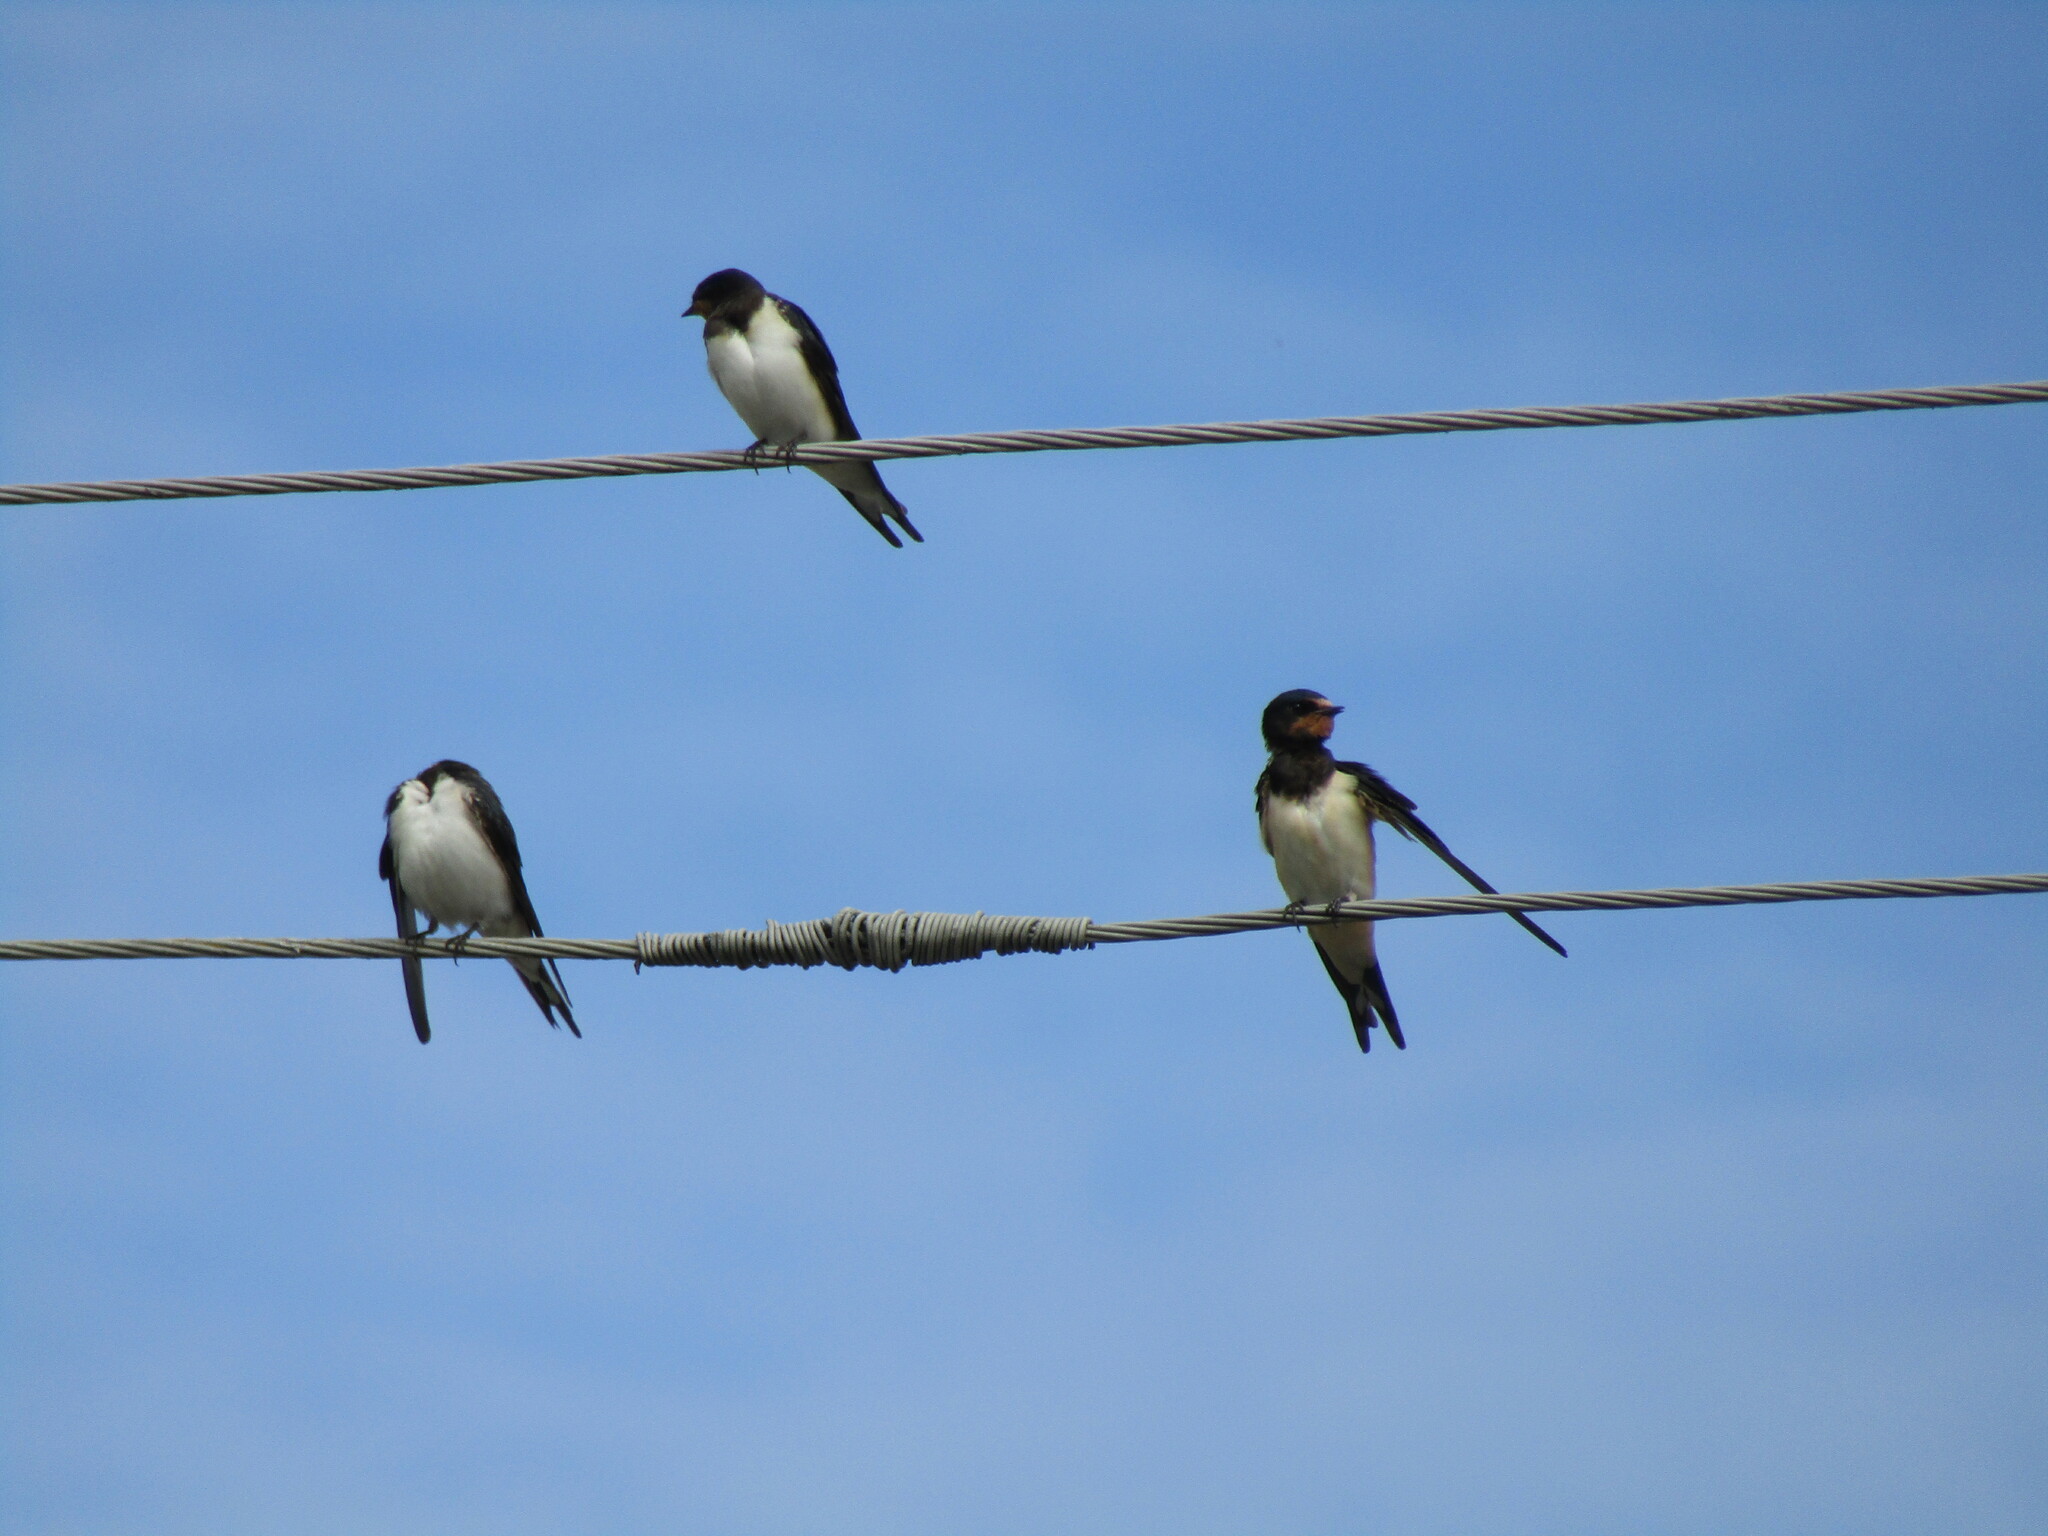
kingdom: Animalia
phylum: Chordata
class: Aves
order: Passeriformes
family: Hirundinidae
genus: Hirundo
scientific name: Hirundo rustica
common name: Barn swallow
